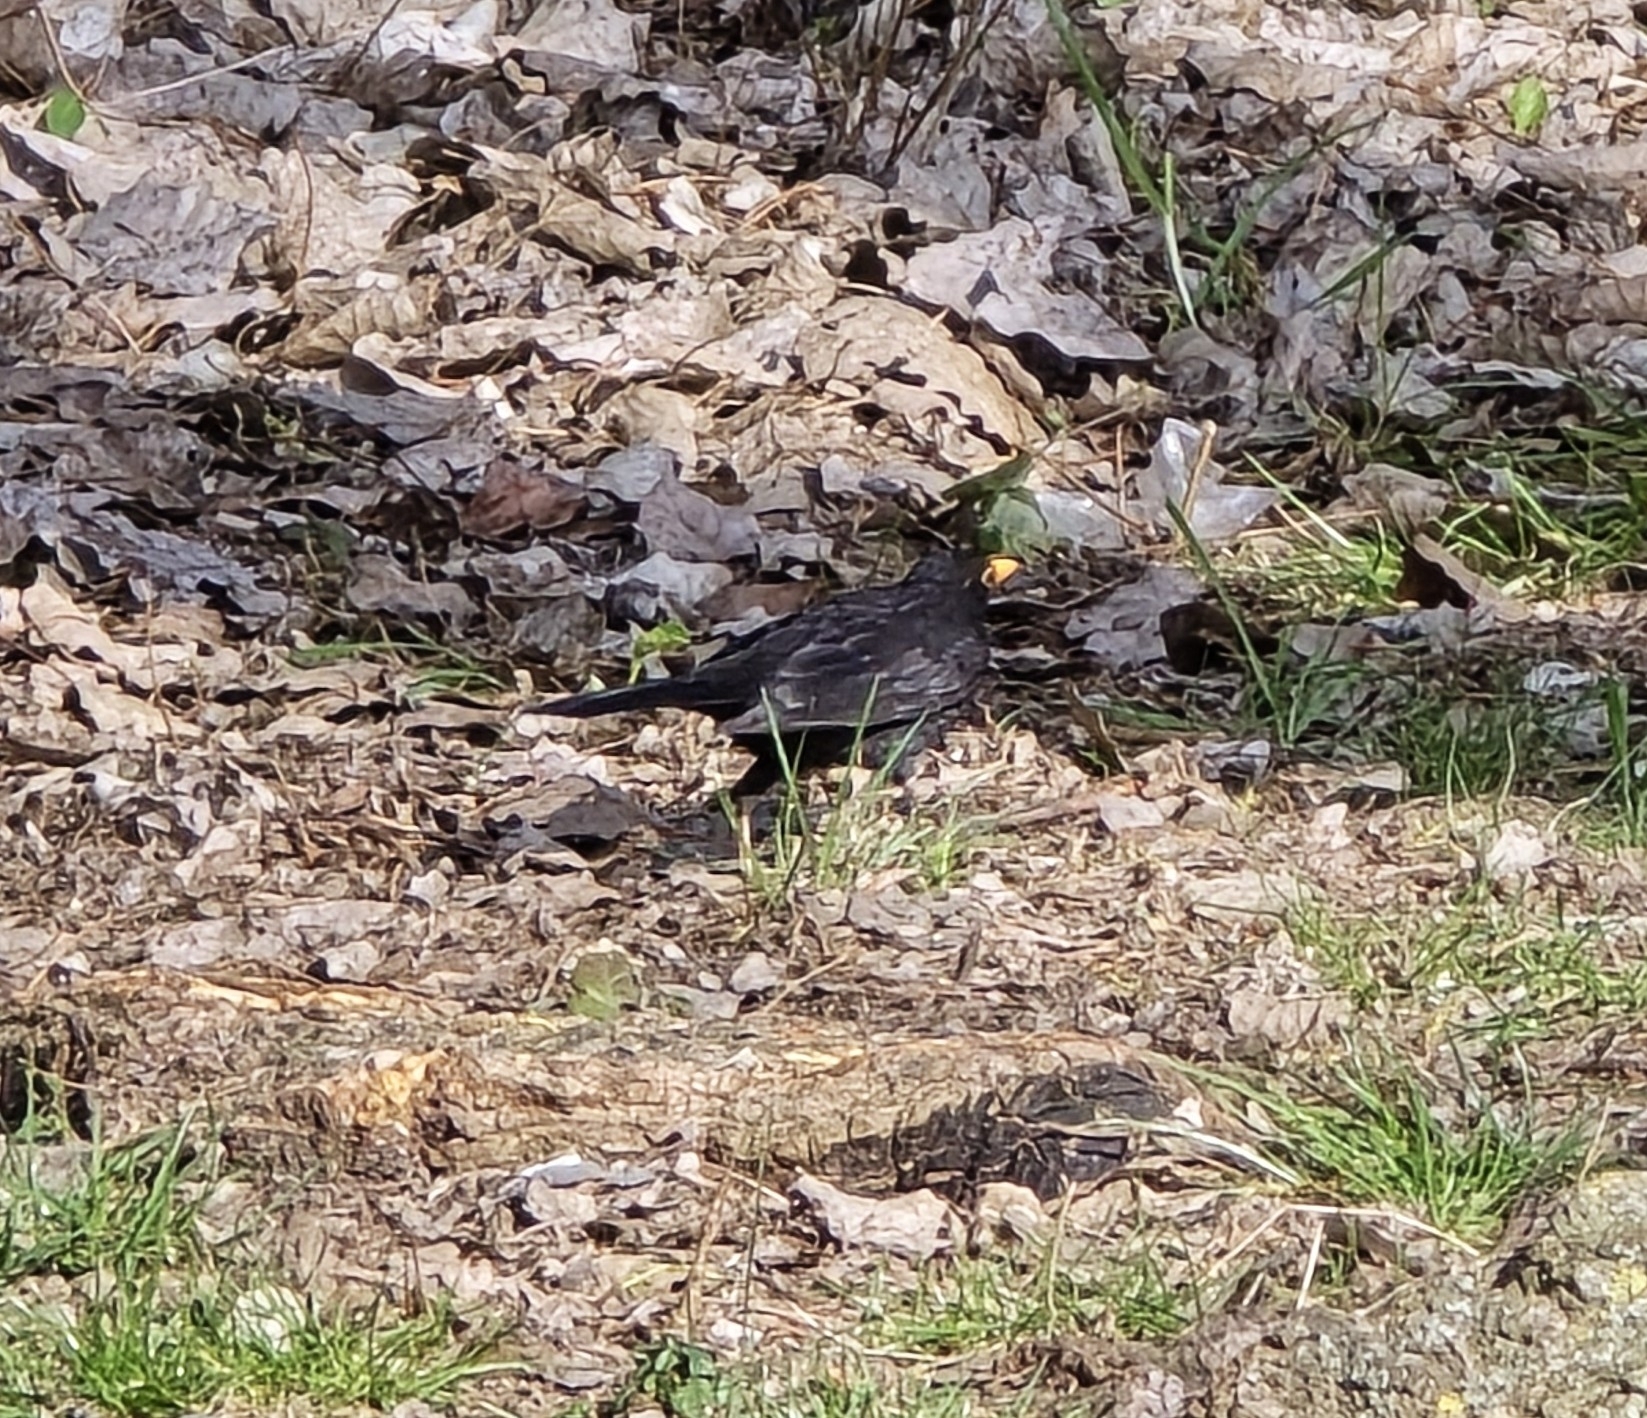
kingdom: Animalia
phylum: Chordata
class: Aves
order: Passeriformes
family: Turdidae
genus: Turdus
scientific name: Turdus merula
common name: Common blackbird
